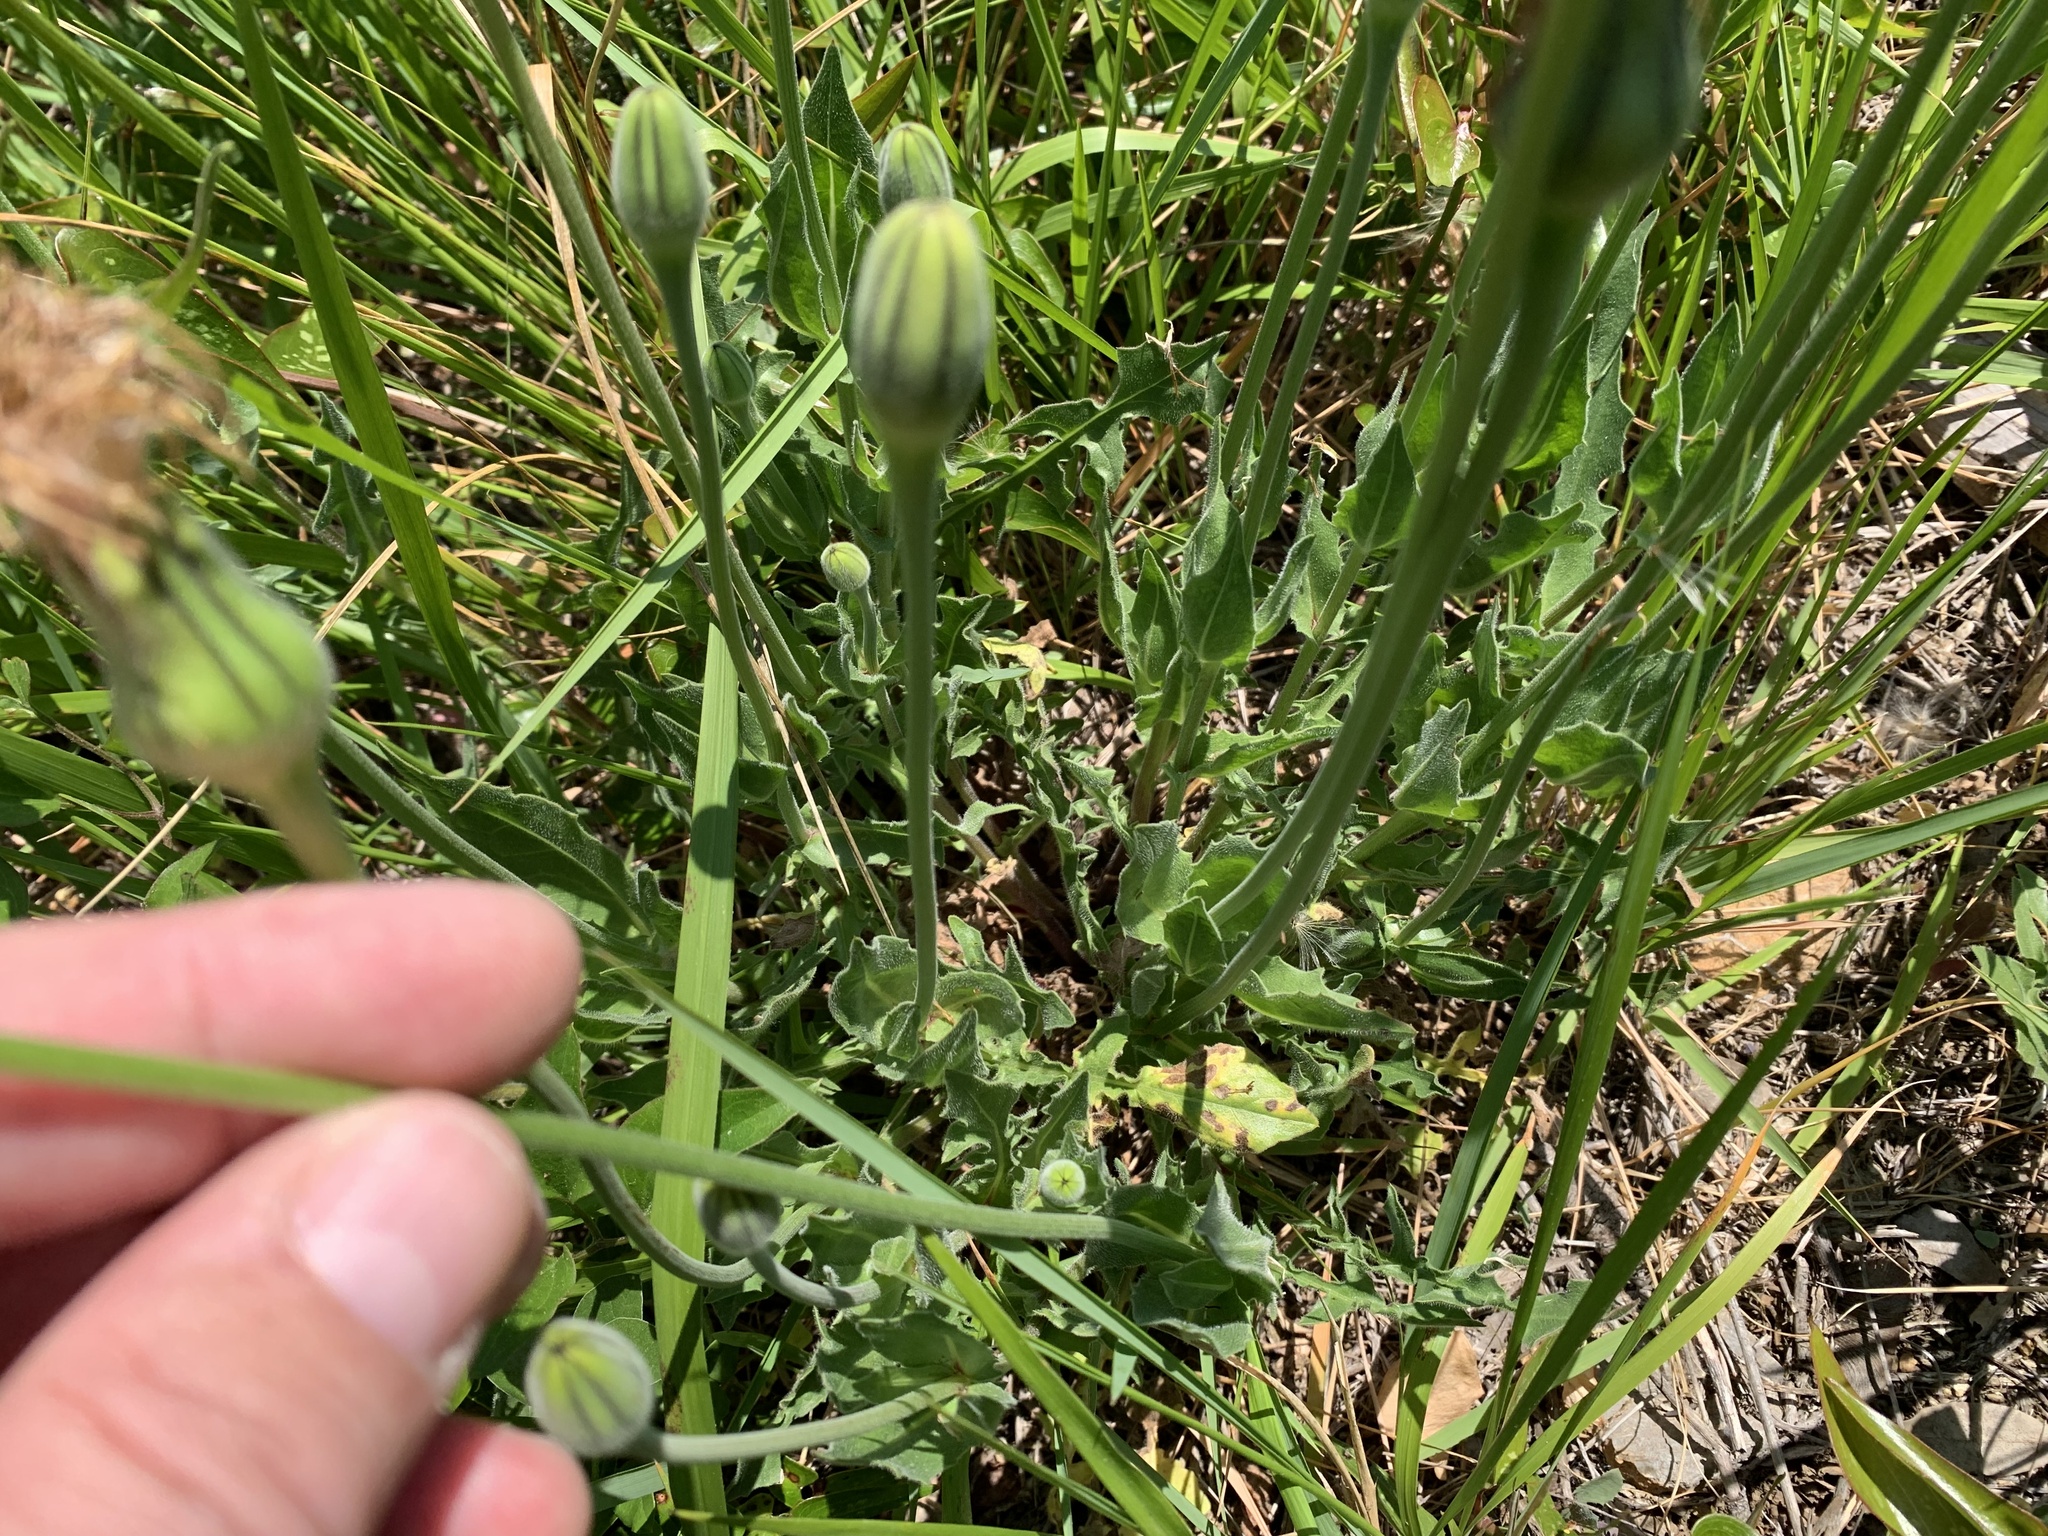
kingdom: Plantae
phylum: Tracheophyta
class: Magnoliopsida
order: Asterales
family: Asteraceae
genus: Urospermum
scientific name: Urospermum dalechampii
